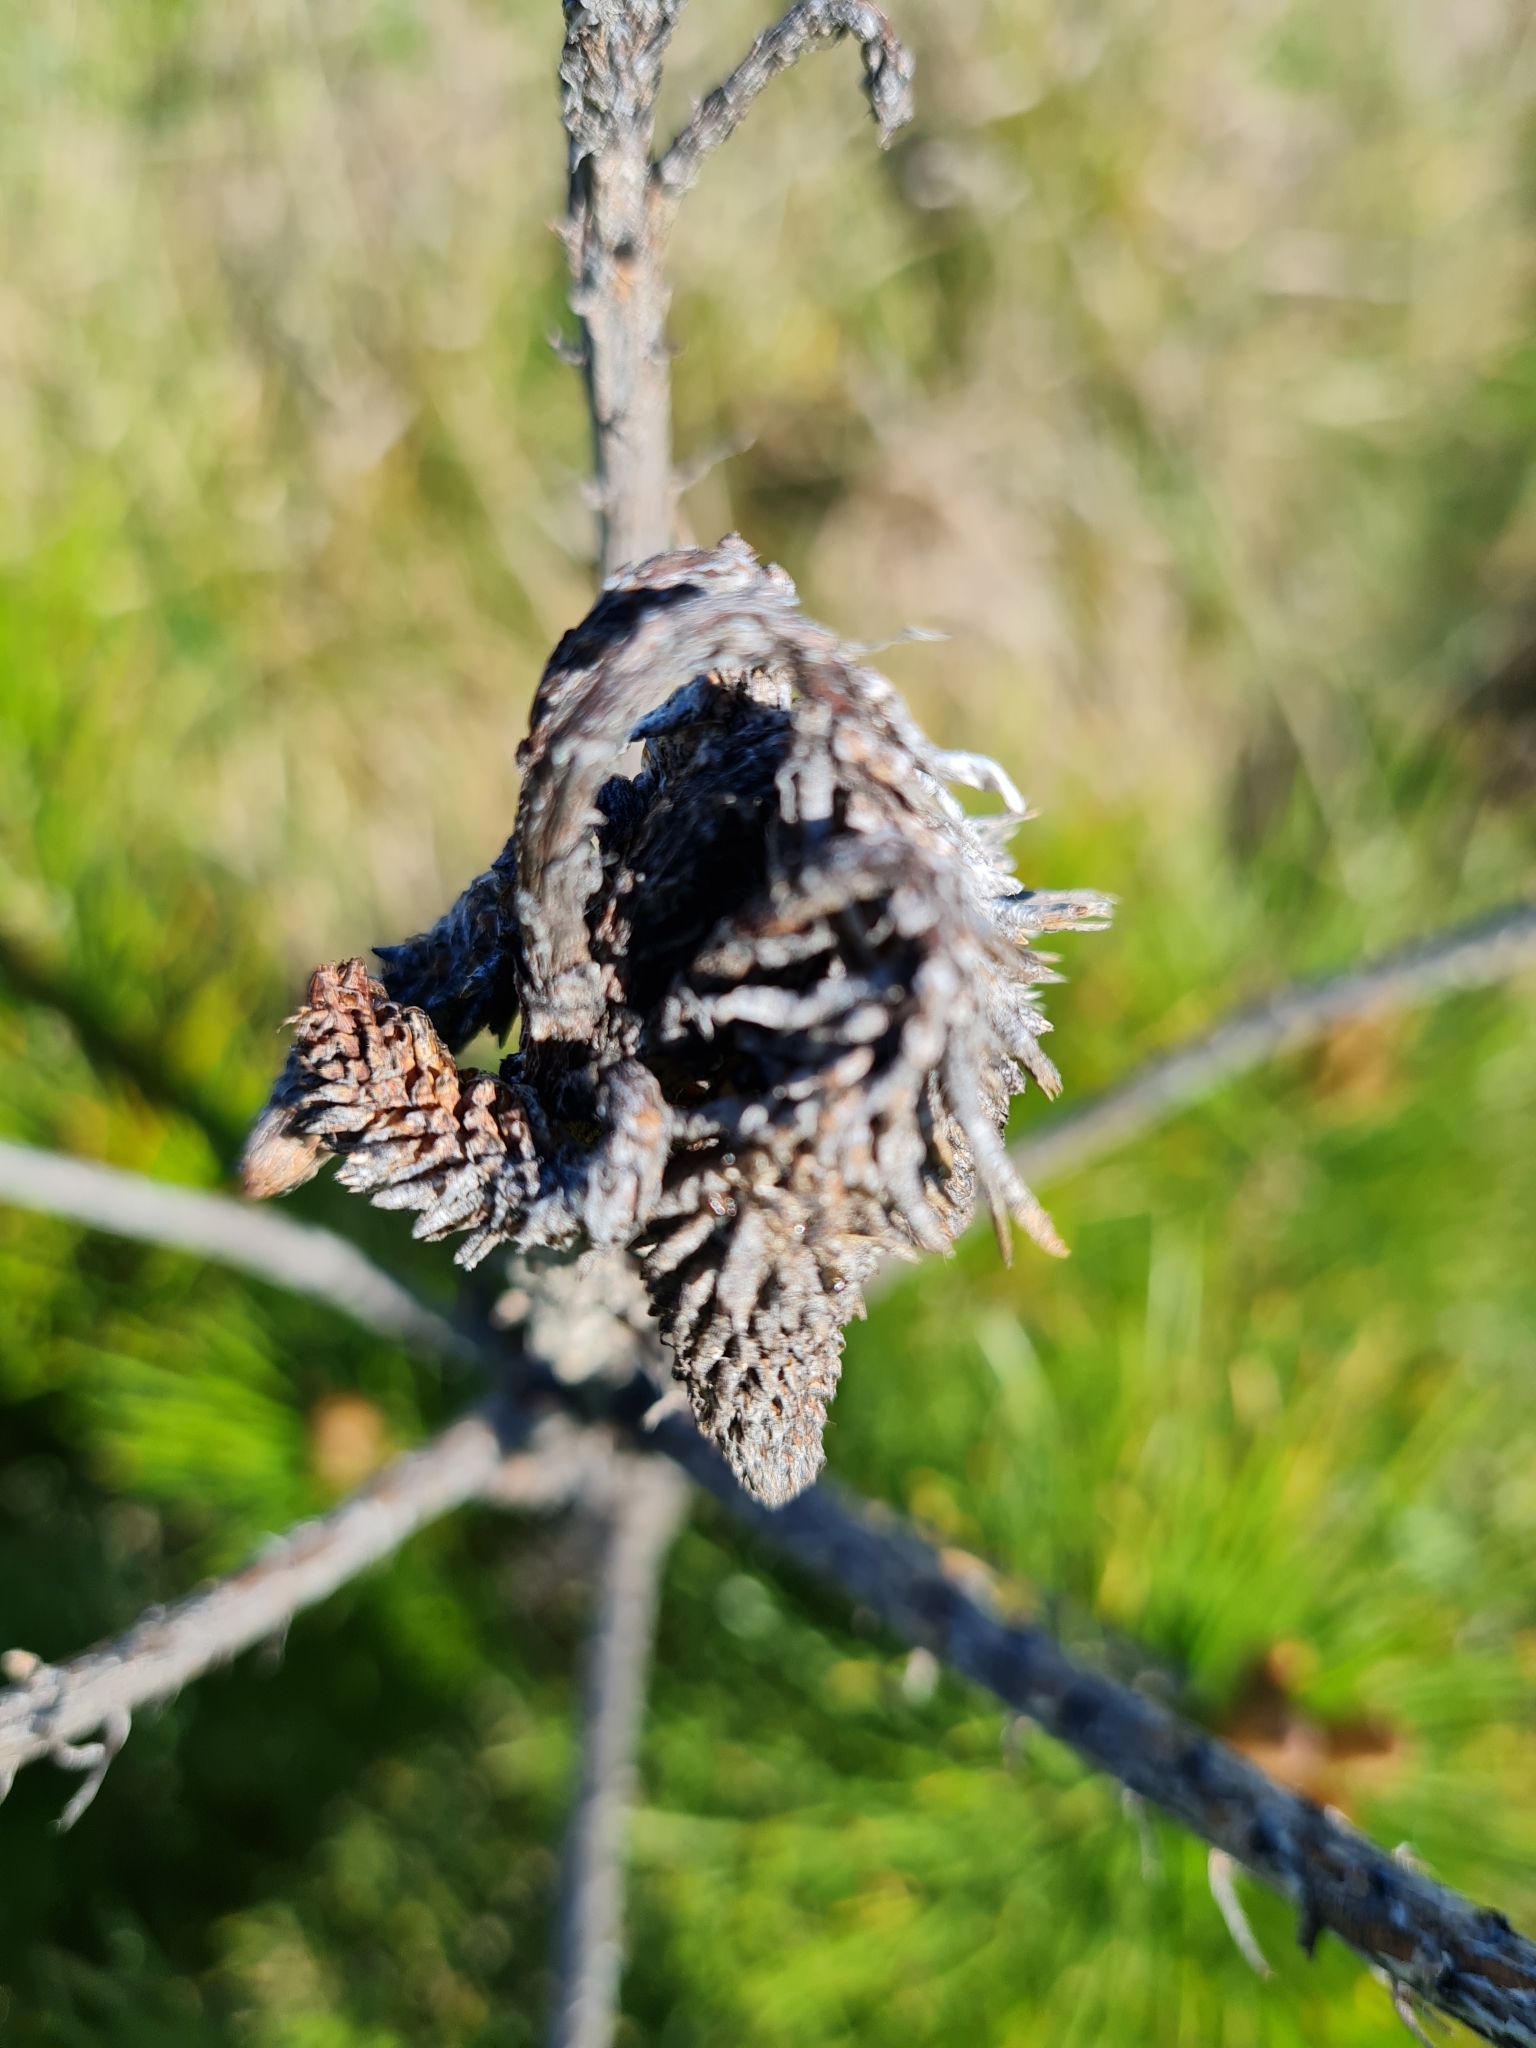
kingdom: Plantae
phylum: Tracheophyta
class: Pinopsida
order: Pinales
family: Pinaceae
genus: Pinus
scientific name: Pinus radiata
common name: Monterey pine
